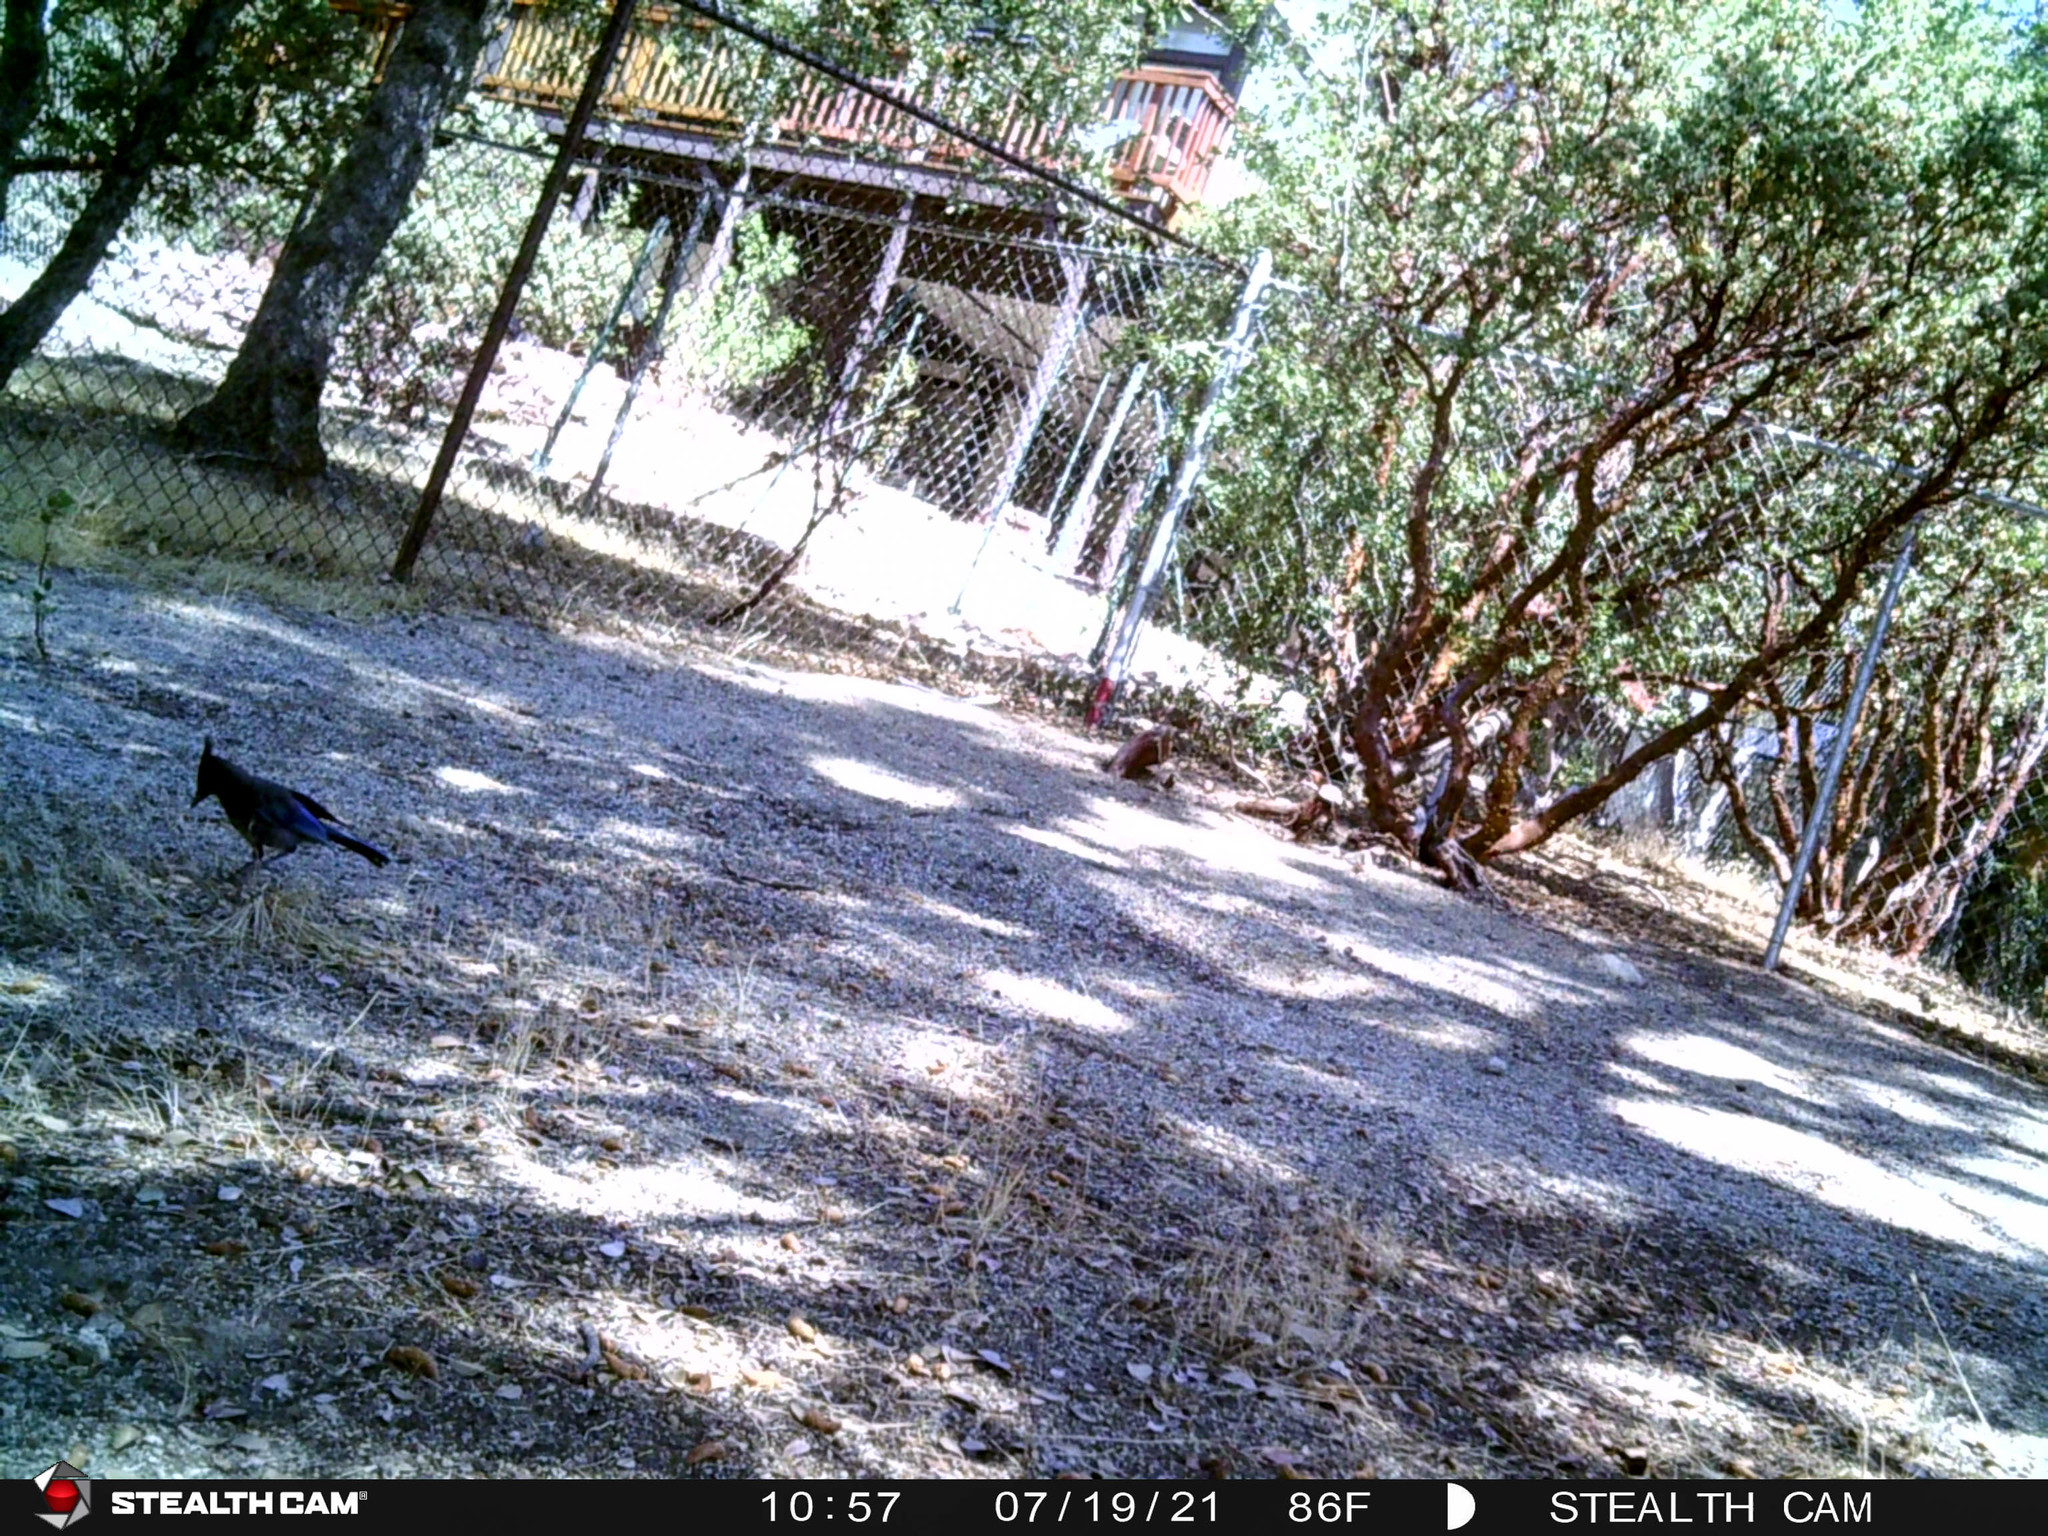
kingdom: Animalia
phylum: Chordata
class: Aves
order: Passeriformes
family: Corvidae
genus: Cyanocitta
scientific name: Cyanocitta stelleri
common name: Steller's jay
